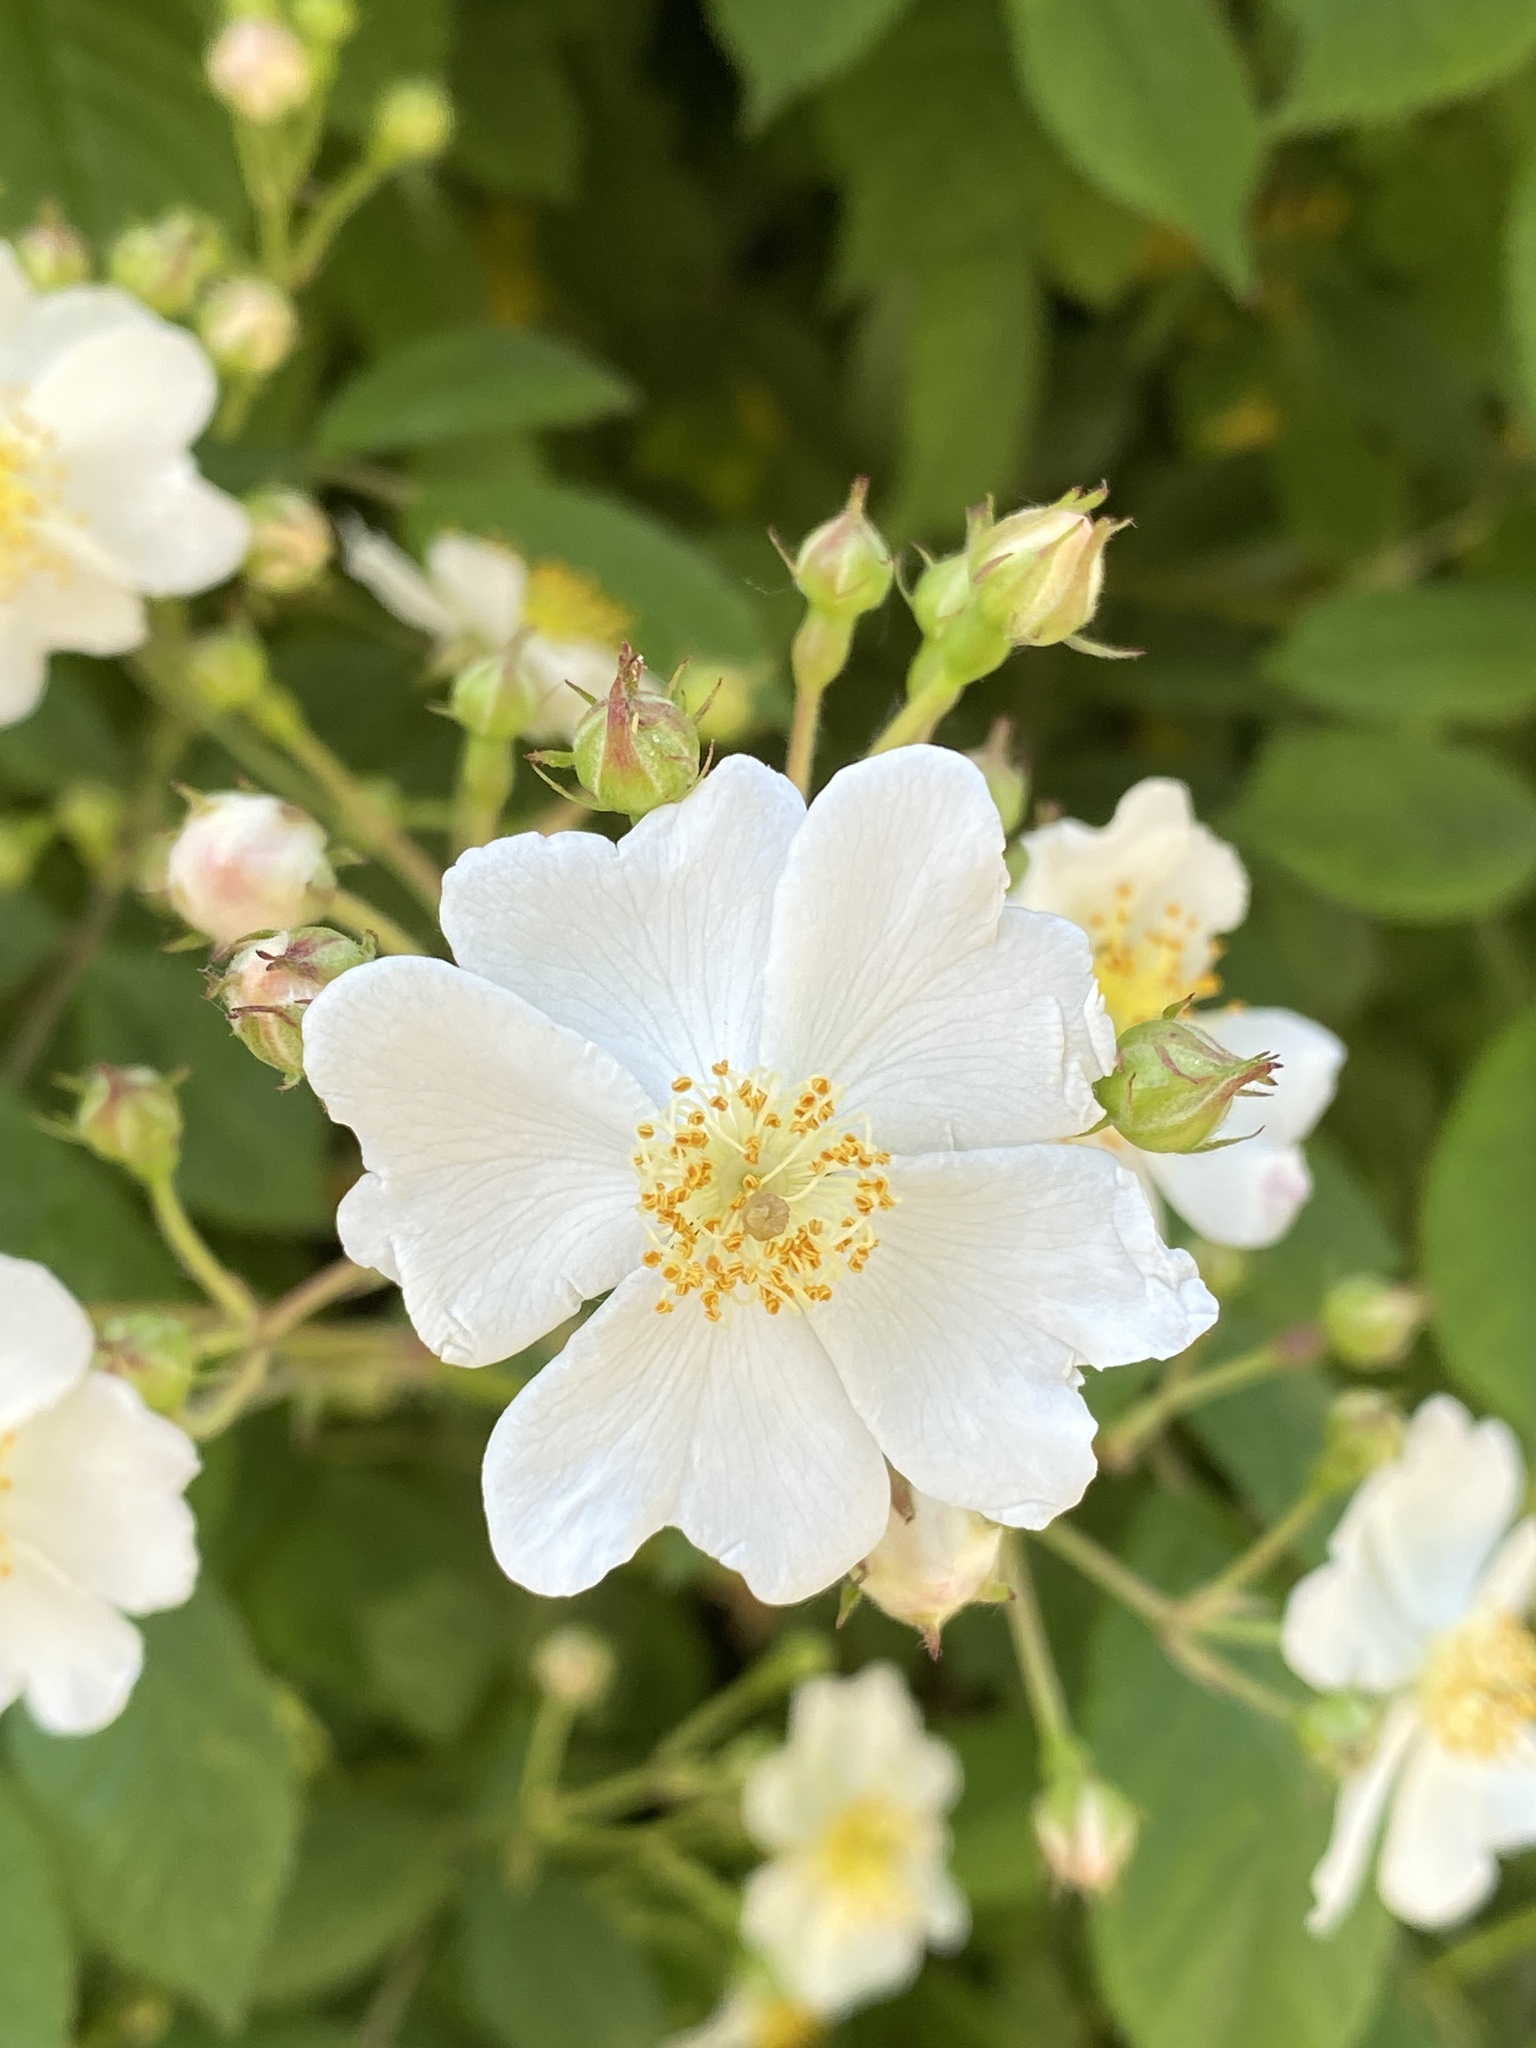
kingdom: Plantae
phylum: Tracheophyta
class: Magnoliopsida
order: Rosales
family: Rosaceae
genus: Rosa
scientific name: Rosa multiflora
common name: Multiflora rose
